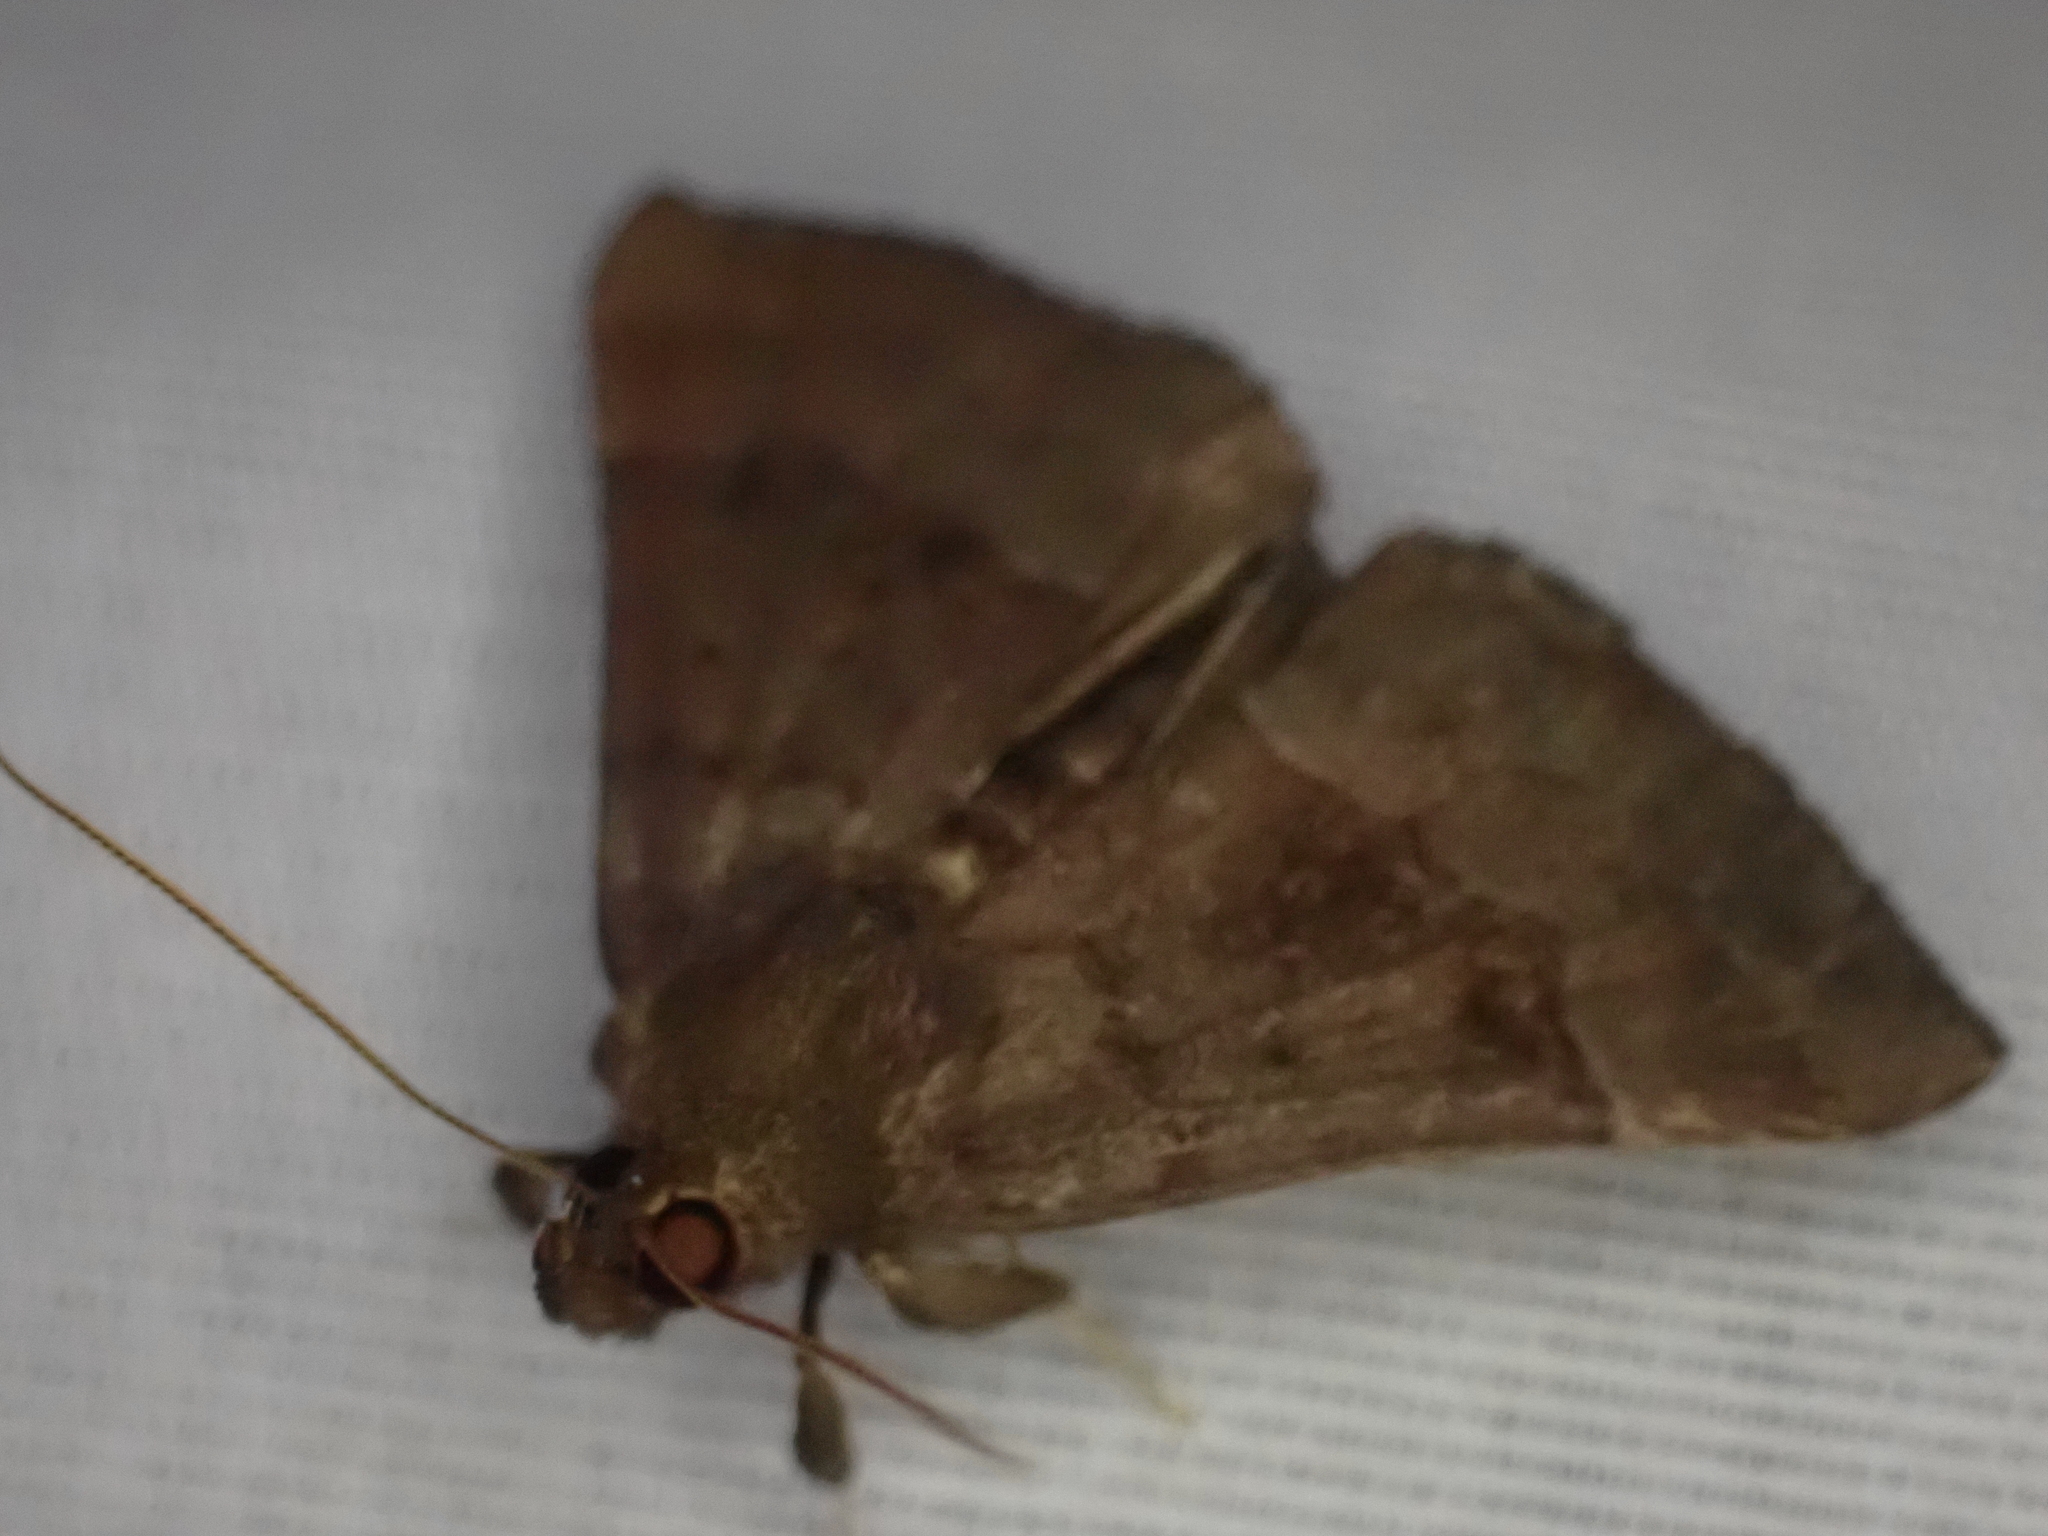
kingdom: Animalia
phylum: Arthropoda
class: Insecta
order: Lepidoptera
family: Erebidae
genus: Hypena
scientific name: Hypena madefactalis
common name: Gray-edged snout
